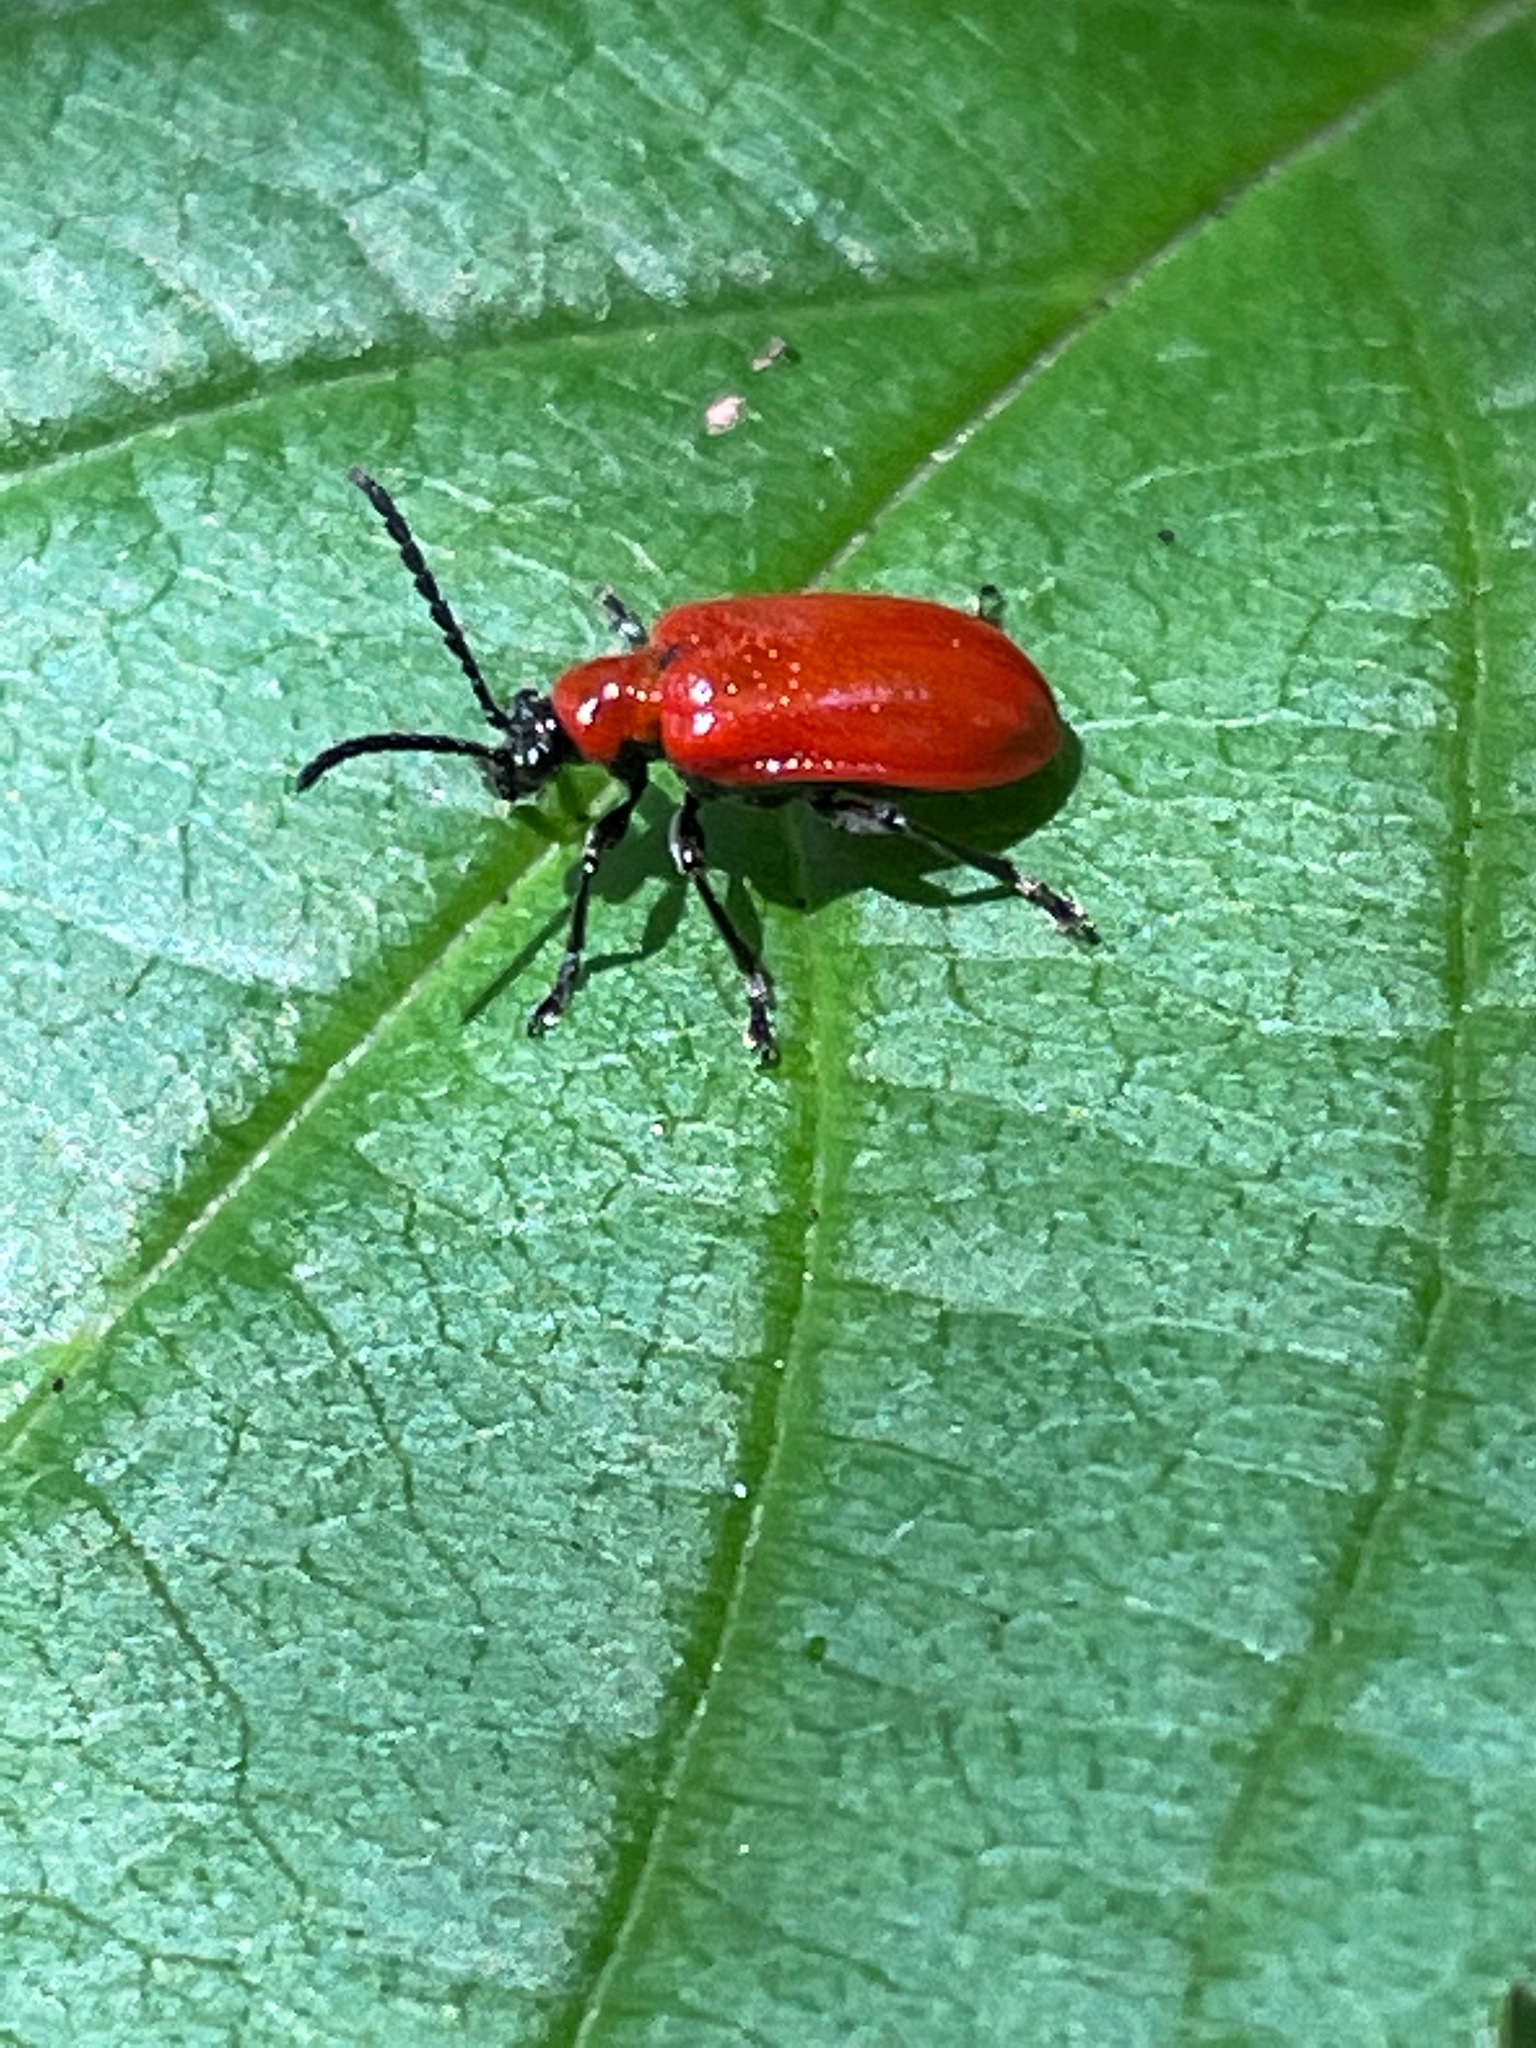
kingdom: Animalia
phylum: Arthropoda
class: Insecta
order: Coleoptera
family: Chrysomelidae
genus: Lilioceris
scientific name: Lilioceris lilii
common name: Lily beetle
